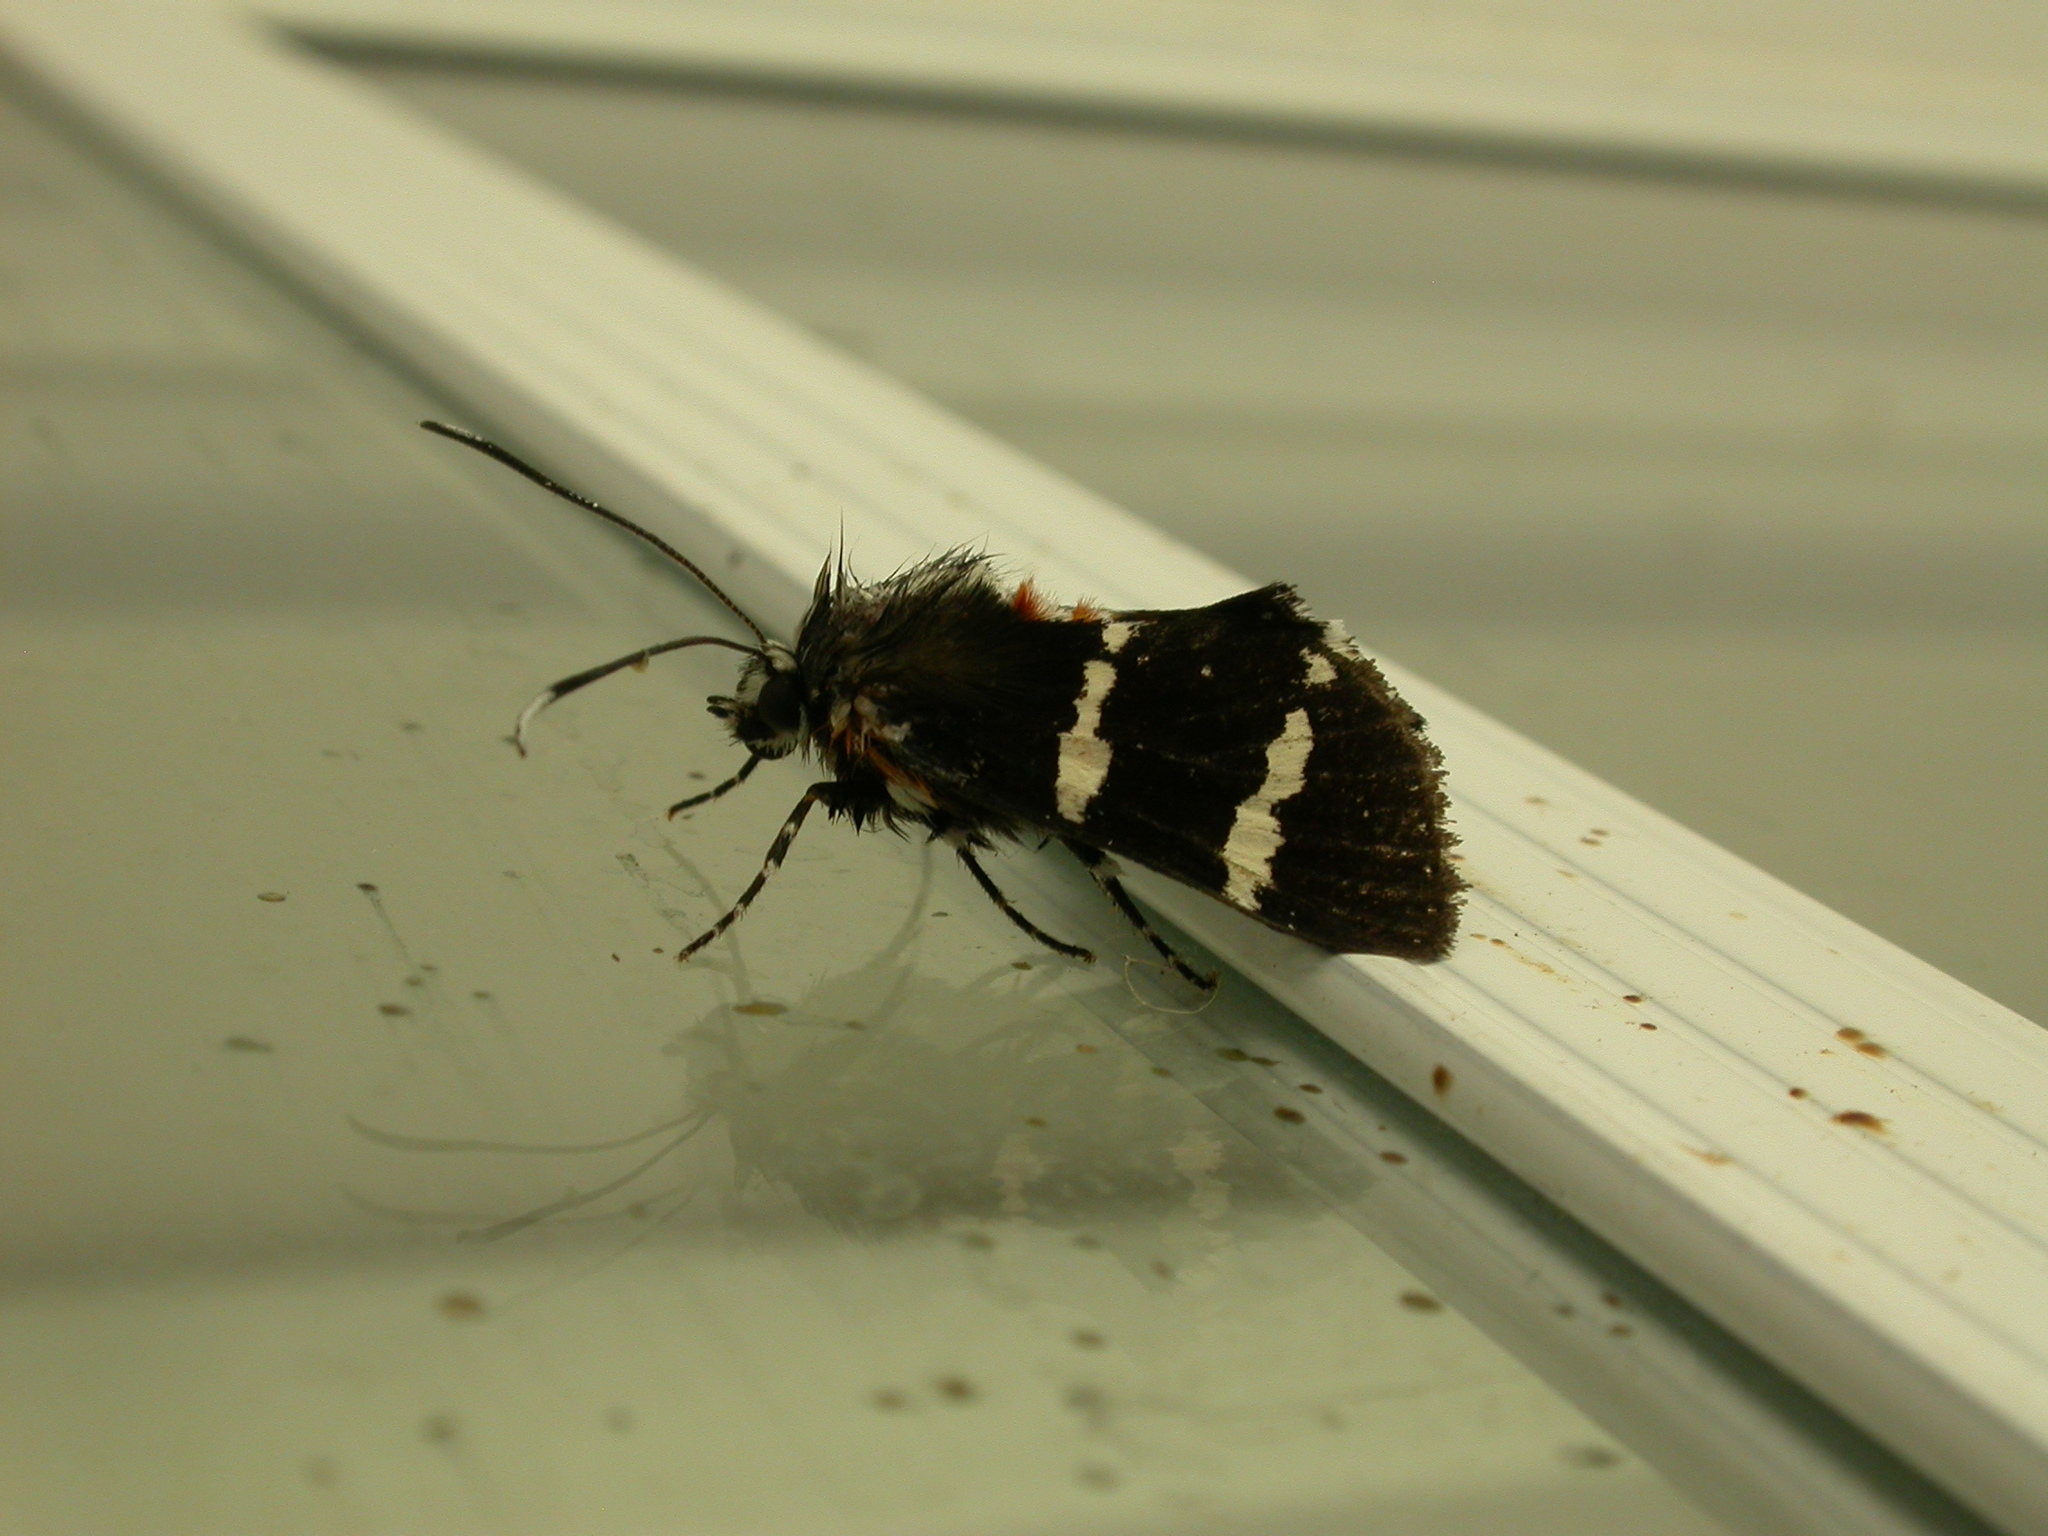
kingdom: Animalia
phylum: Arthropoda
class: Insecta
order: Lepidoptera
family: Noctuidae
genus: Hecatesia
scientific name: Hecatesia fenestrata
